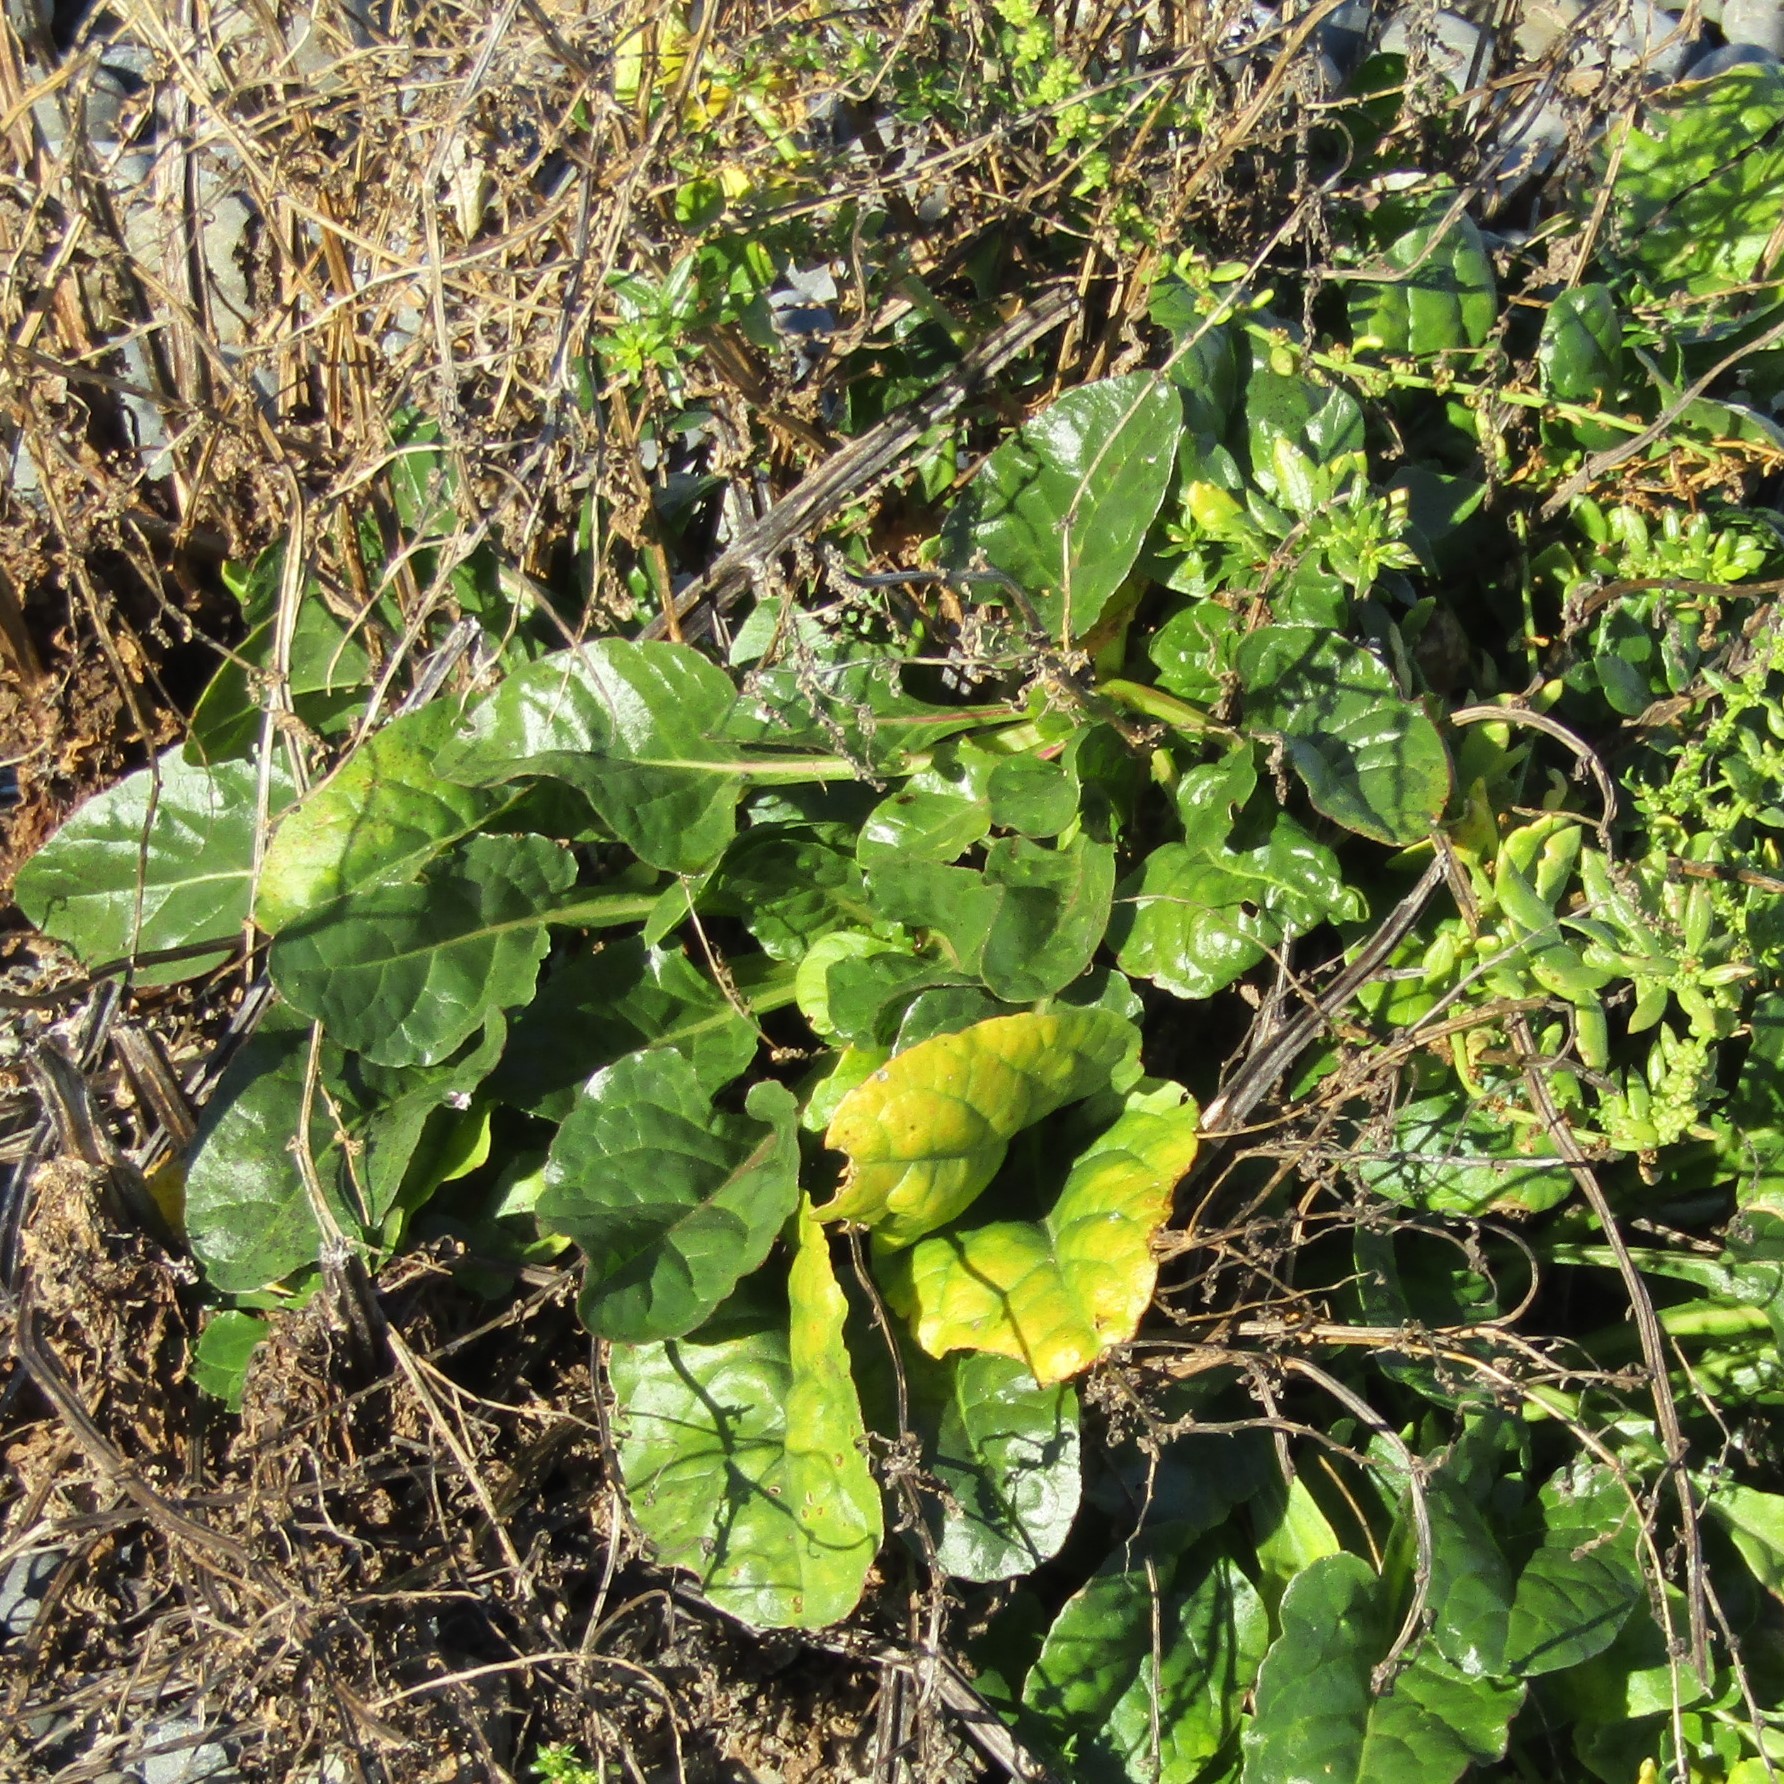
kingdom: Plantae
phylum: Tracheophyta
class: Magnoliopsida
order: Caryophyllales
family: Amaranthaceae
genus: Beta
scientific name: Beta vulgaris
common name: Beet
